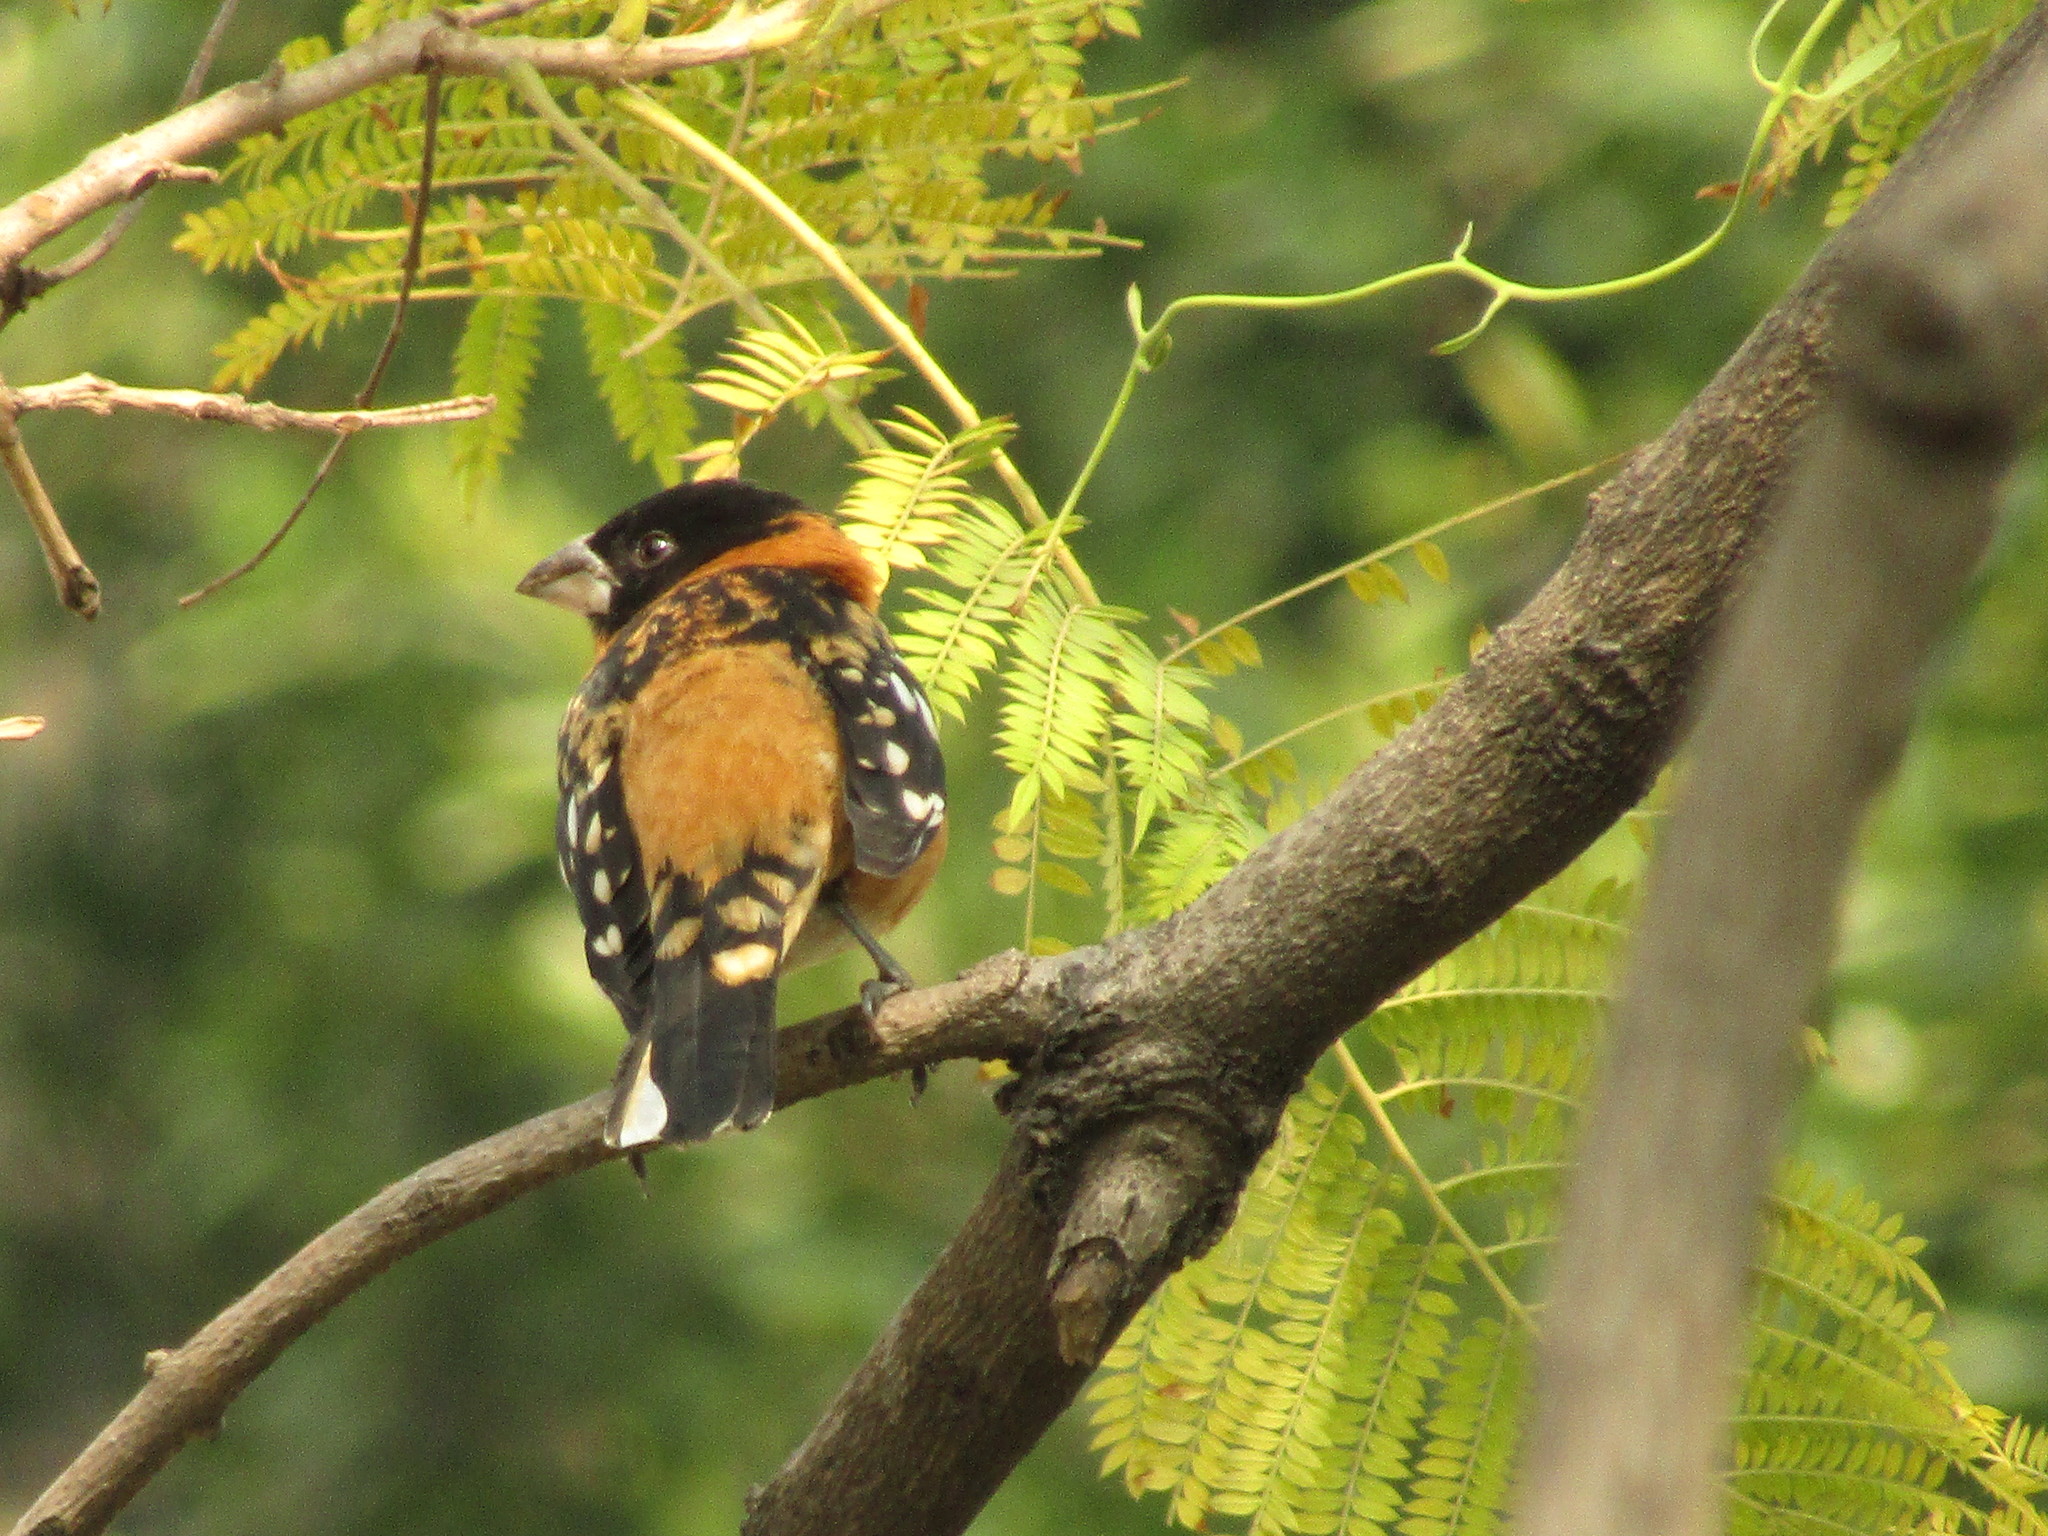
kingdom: Animalia
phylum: Chordata
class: Aves
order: Passeriformes
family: Cardinalidae
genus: Pheucticus
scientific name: Pheucticus melanocephalus
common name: Black-headed grosbeak
